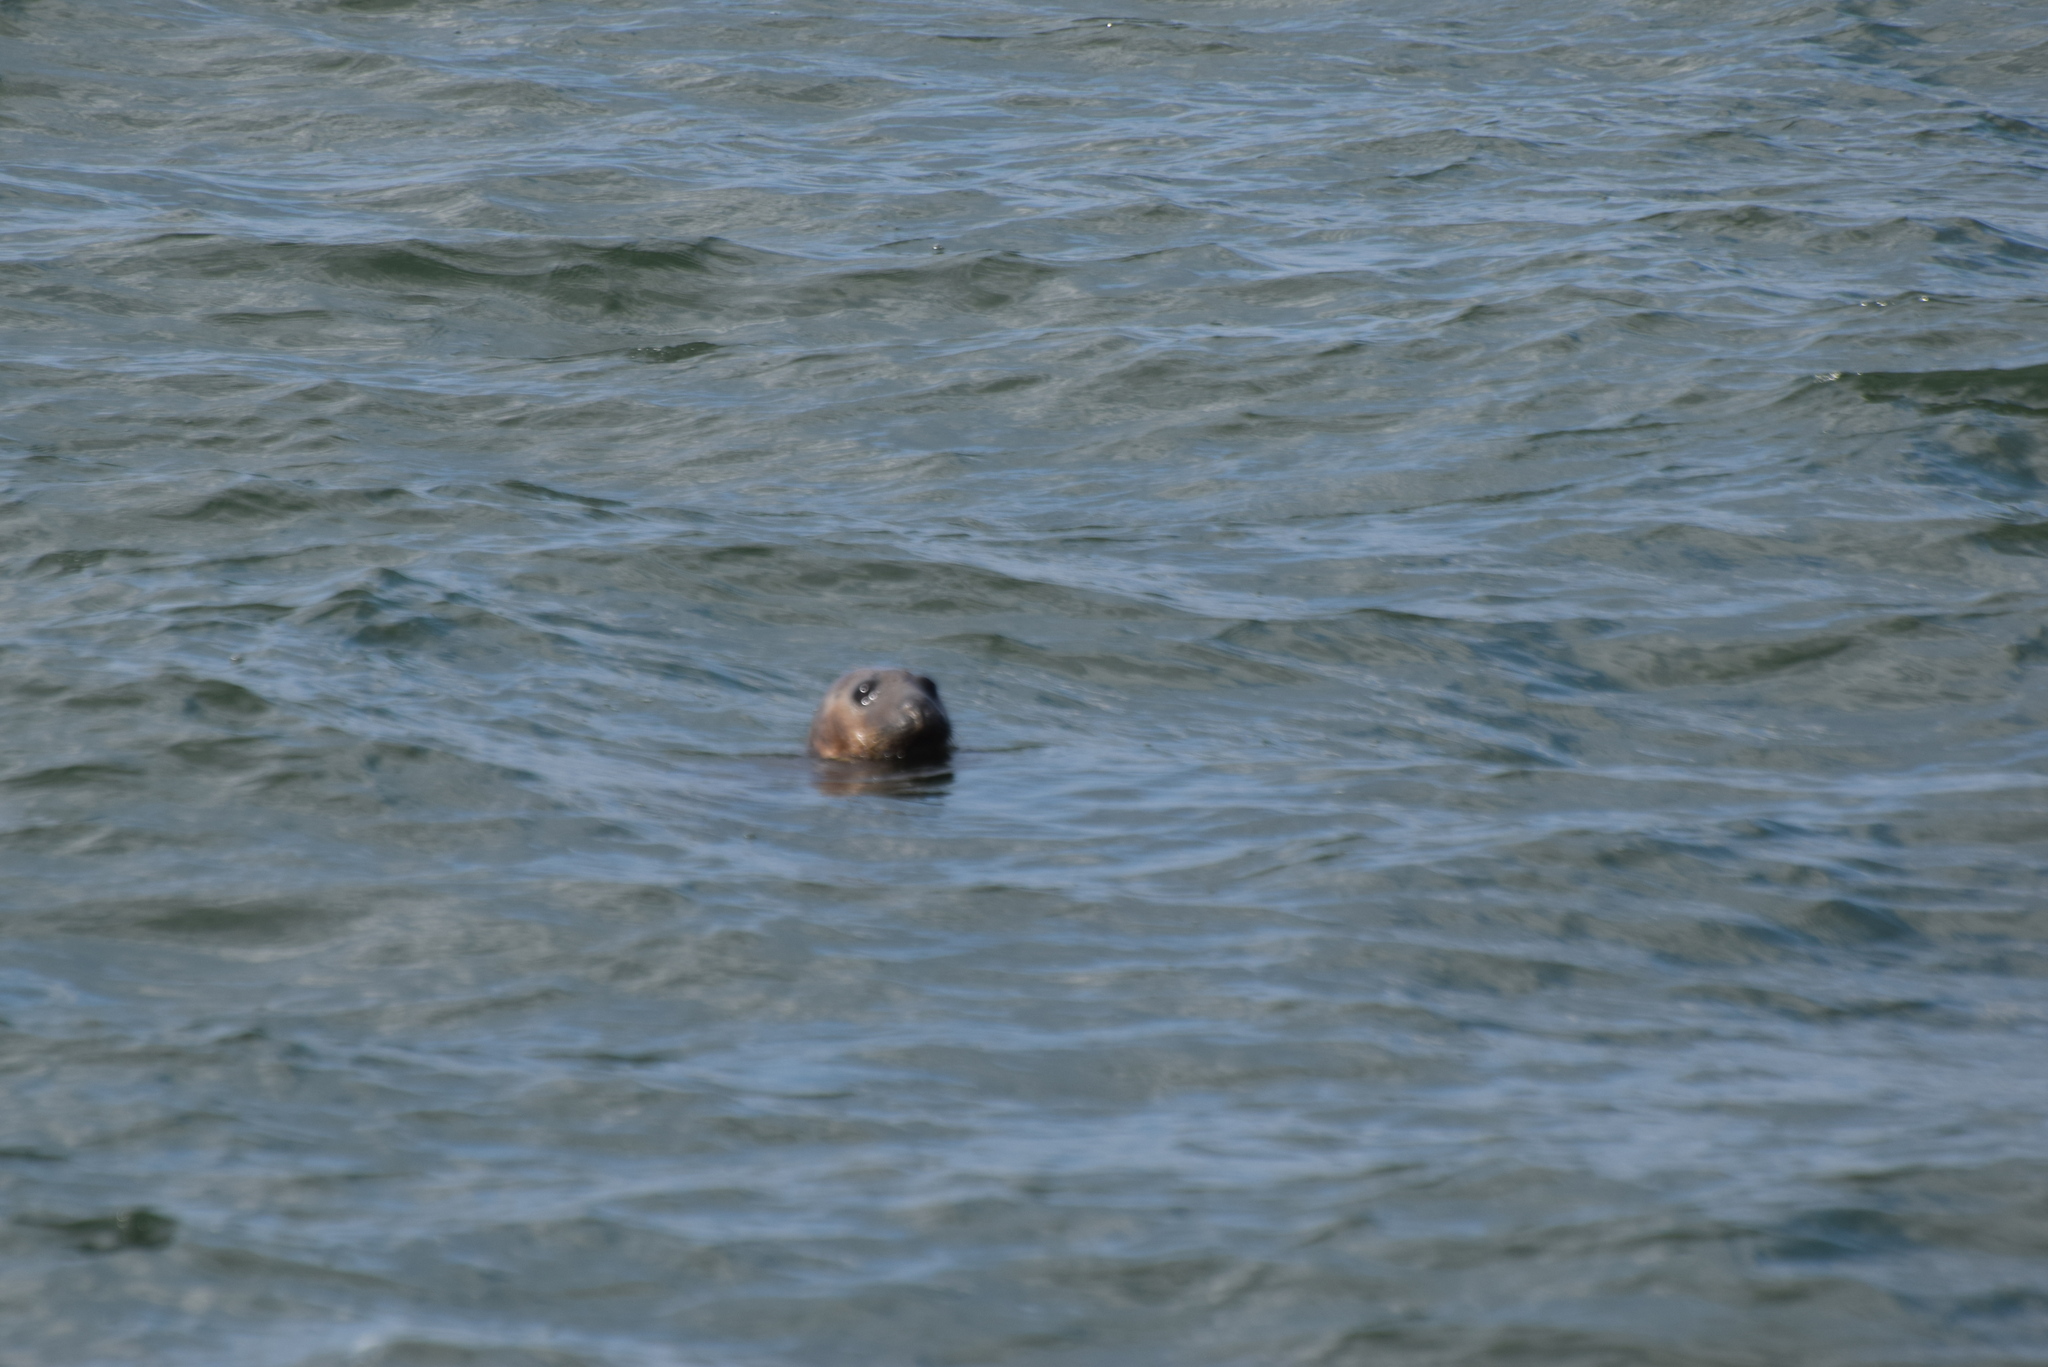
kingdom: Animalia
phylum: Chordata
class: Mammalia
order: Carnivora
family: Phocidae
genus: Halichoerus
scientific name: Halichoerus grypus
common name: Grey seal
